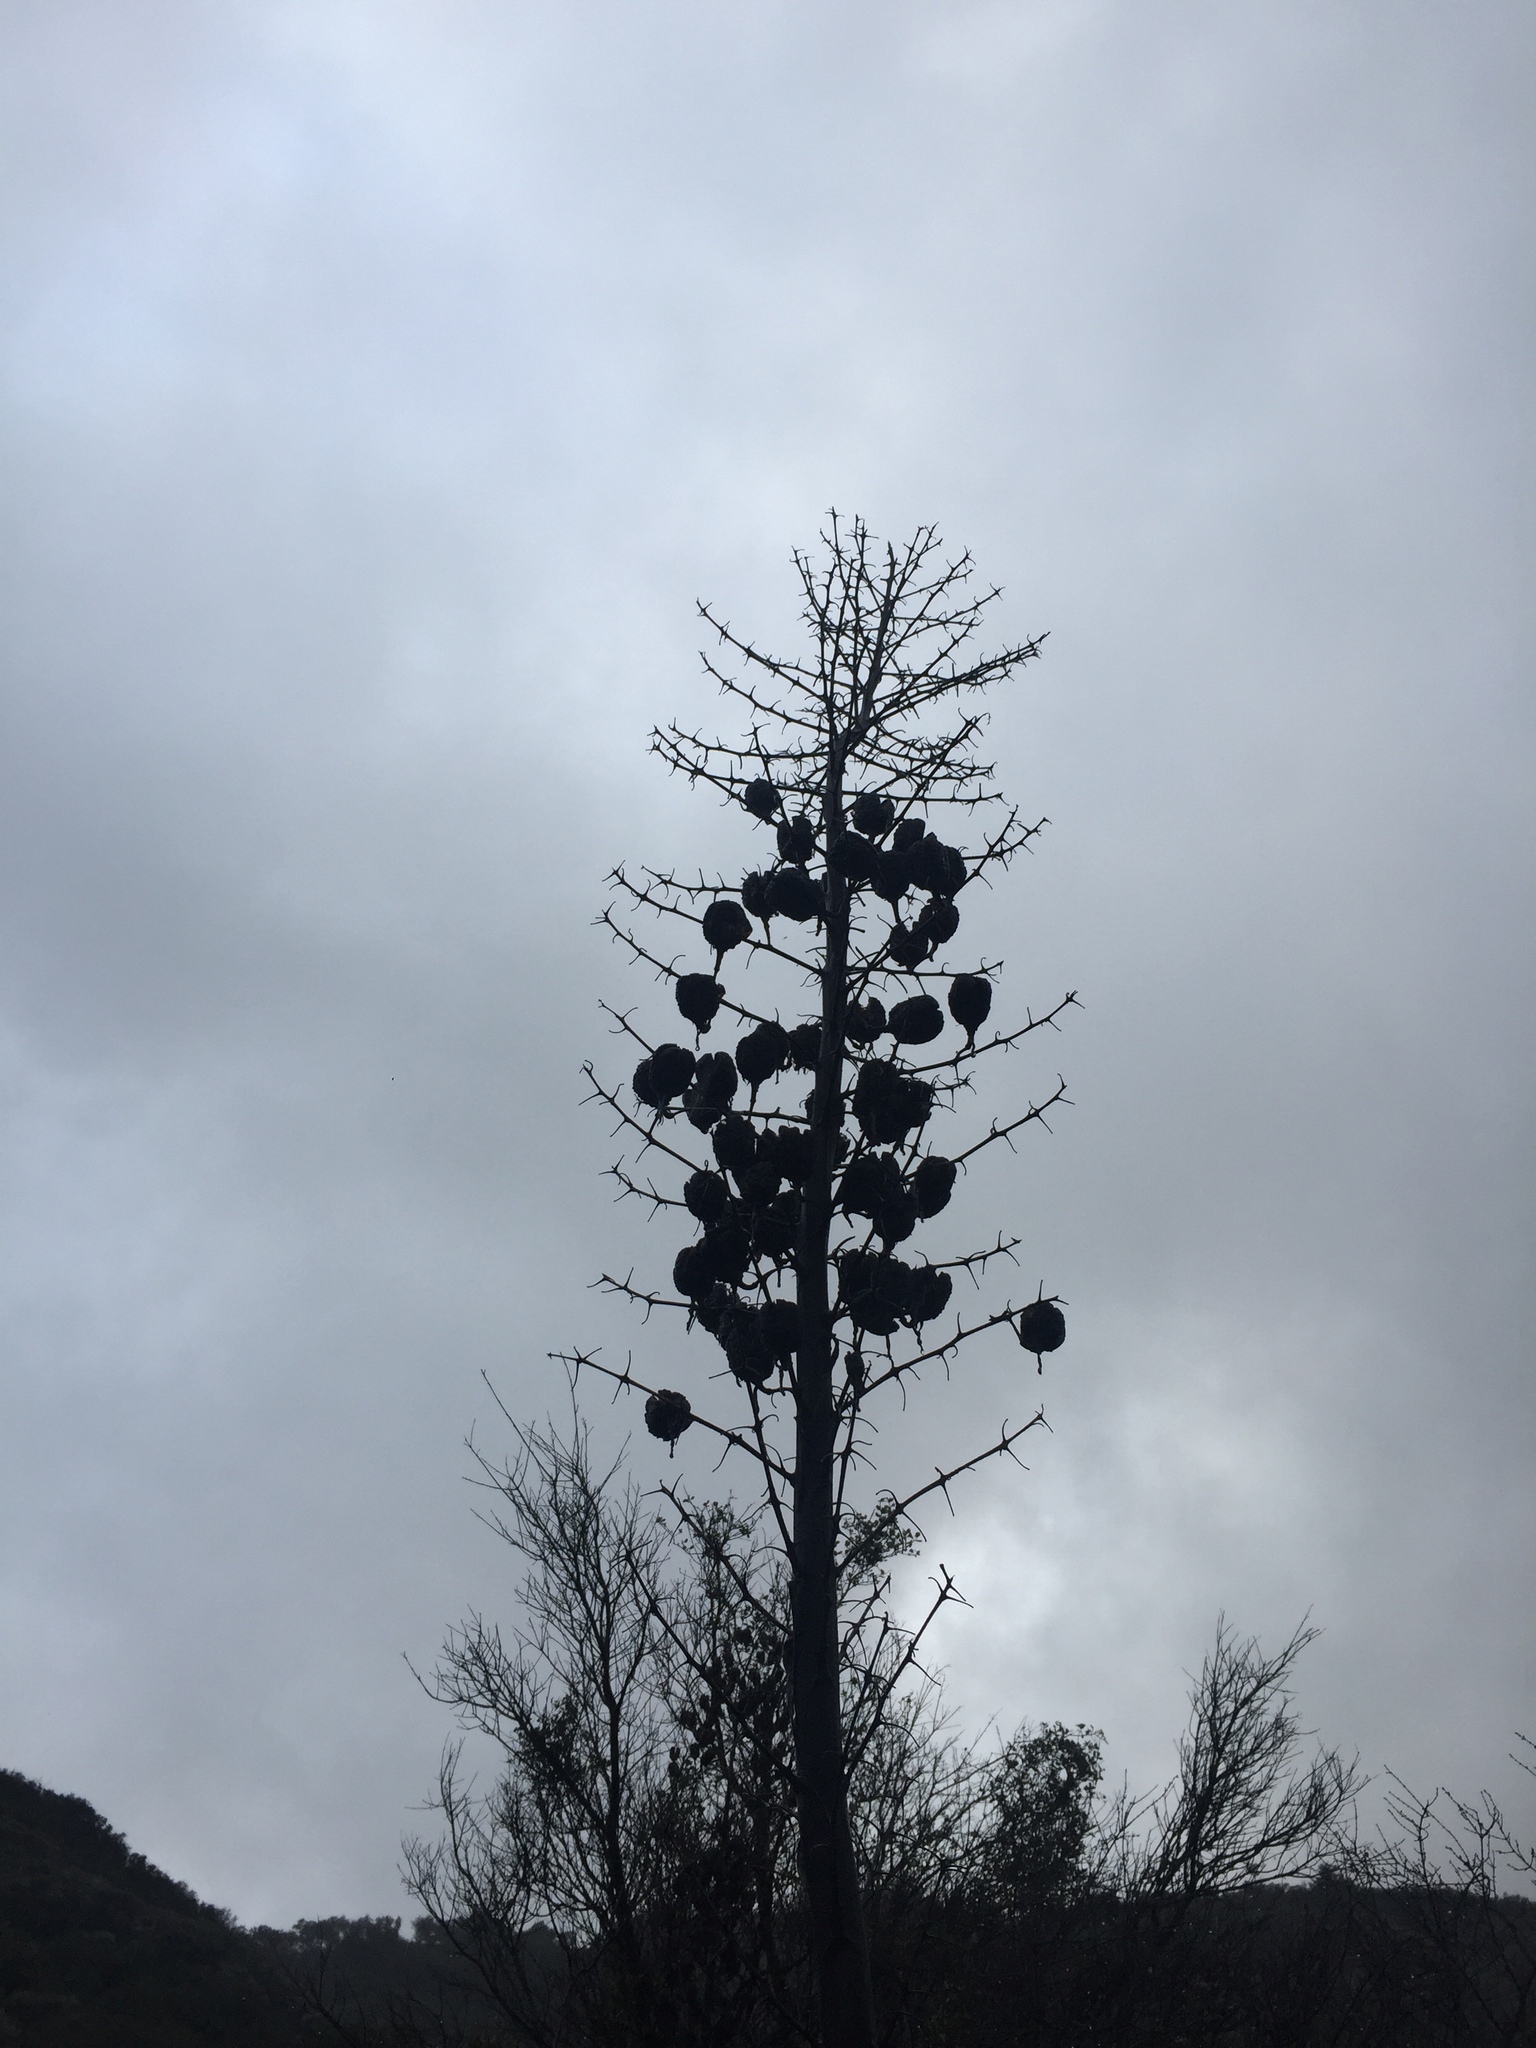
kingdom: Plantae
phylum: Tracheophyta
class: Liliopsida
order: Asparagales
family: Asparagaceae
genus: Hesperoyucca
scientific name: Hesperoyucca whipplei
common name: Our lord's-candle
